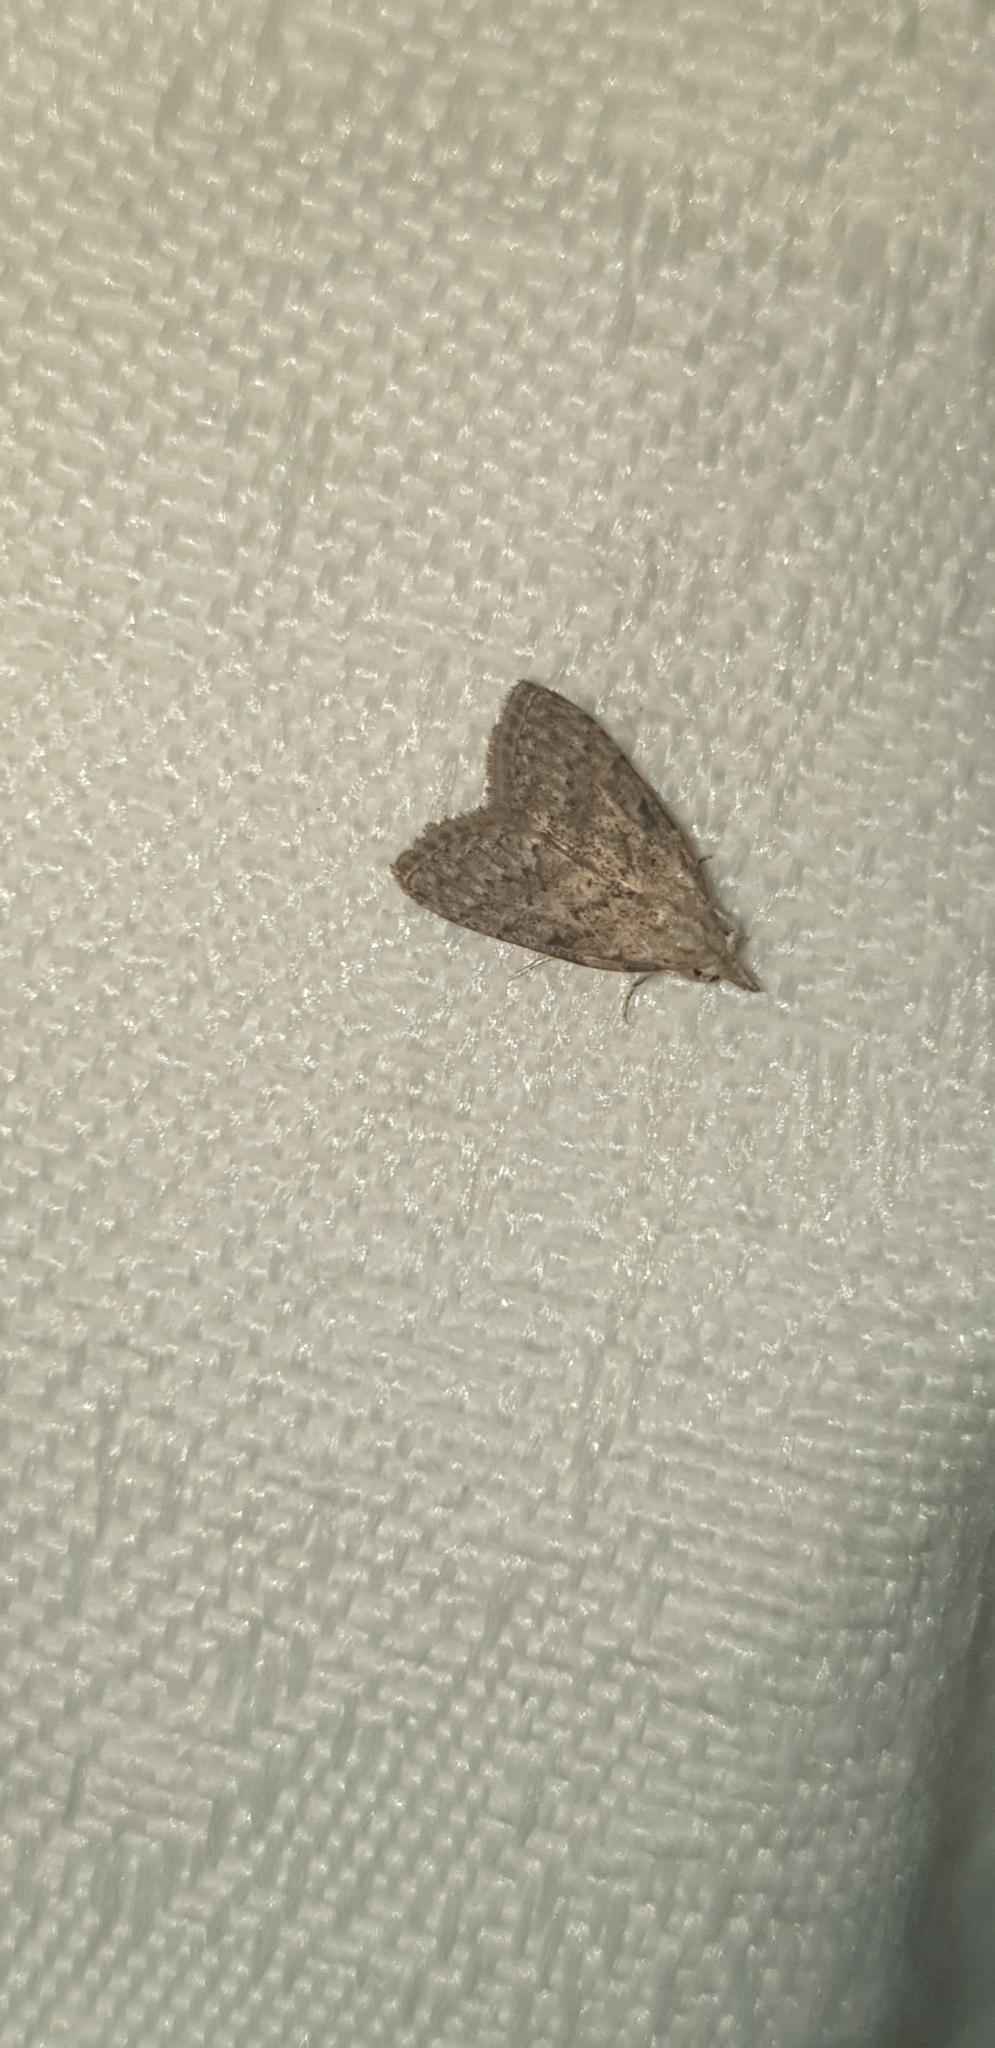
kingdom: Animalia
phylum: Arthropoda
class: Insecta
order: Lepidoptera
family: Nolidae
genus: Nola
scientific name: Nola squalida
